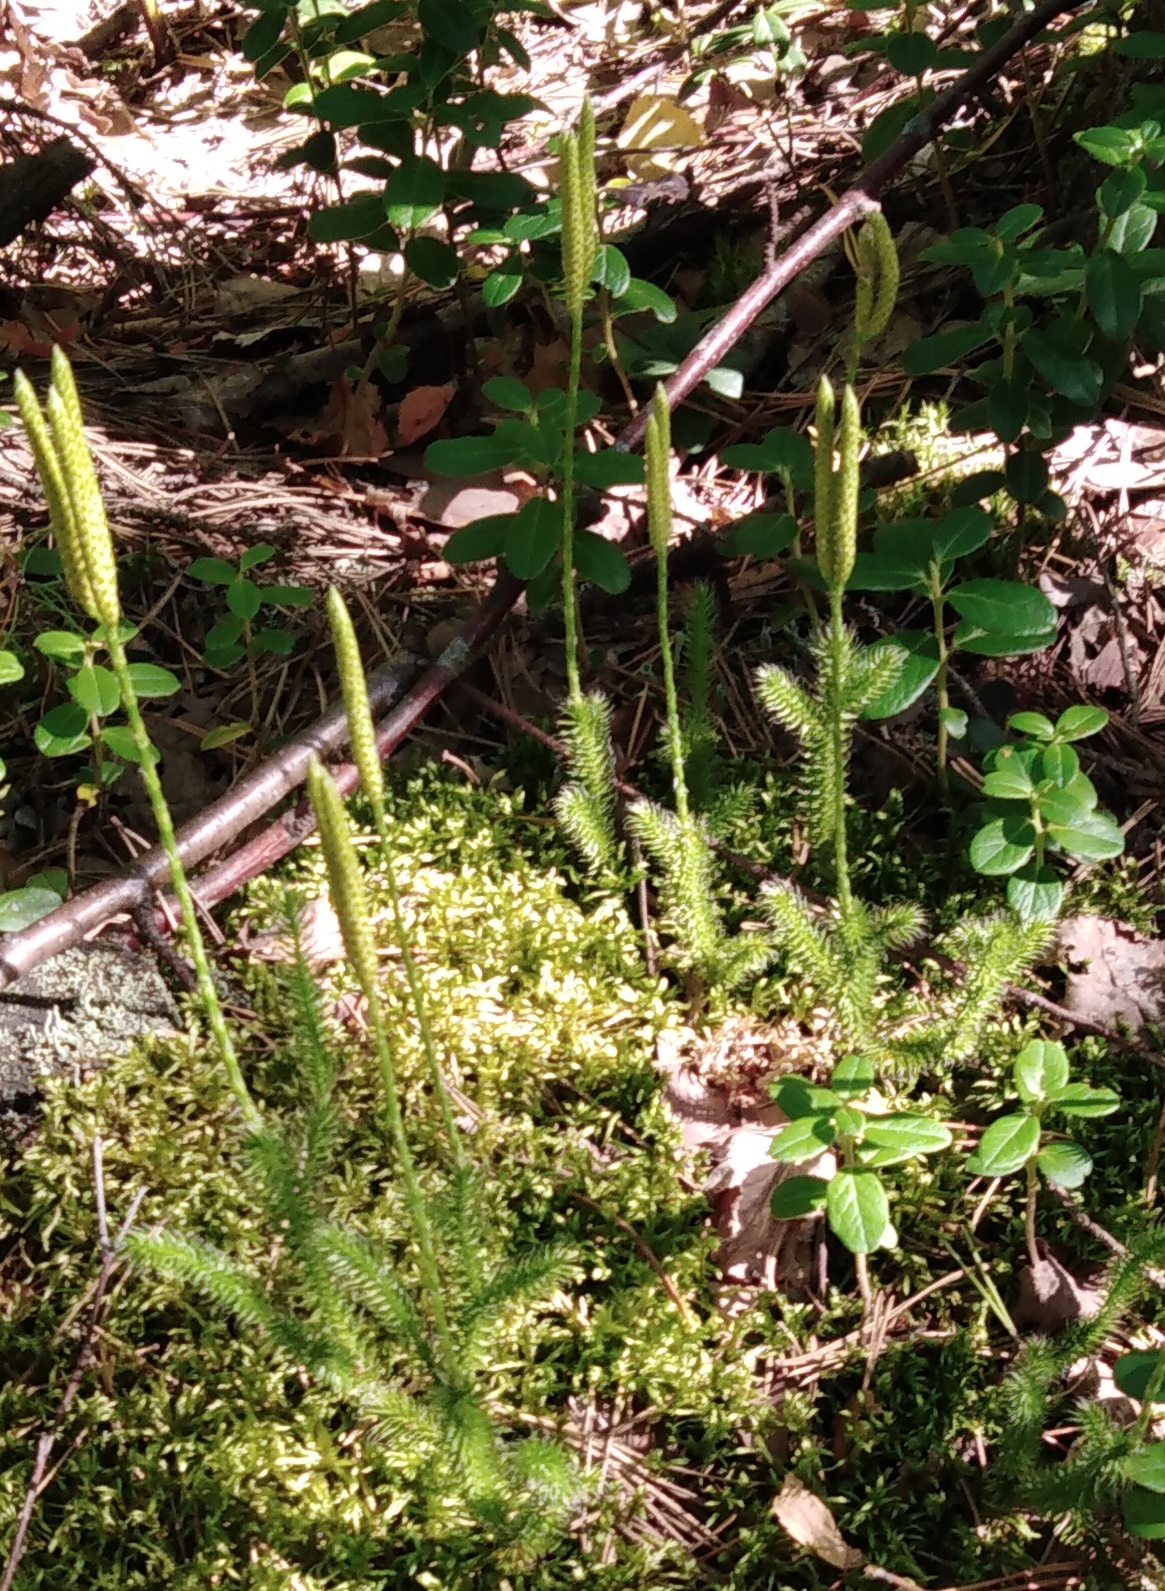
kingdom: Plantae
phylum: Tracheophyta
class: Lycopodiopsida
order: Lycopodiales
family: Lycopodiaceae
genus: Lycopodium
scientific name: Lycopodium clavatum
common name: Stag's-horn clubmoss
